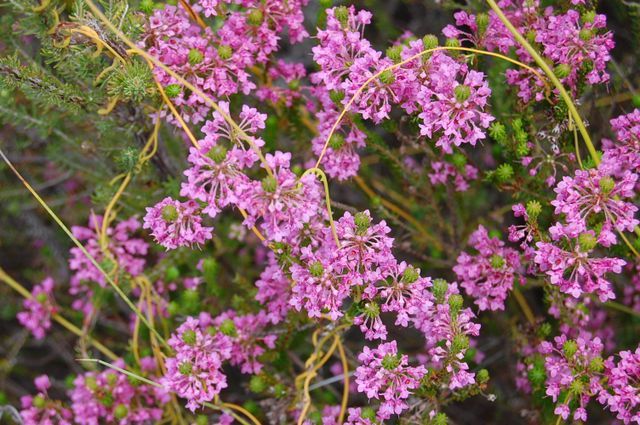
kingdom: Plantae
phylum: Tracheophyta
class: Magnoliopsida
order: Ericales
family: Ericaceae
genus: Erica
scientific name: Erica cubica
